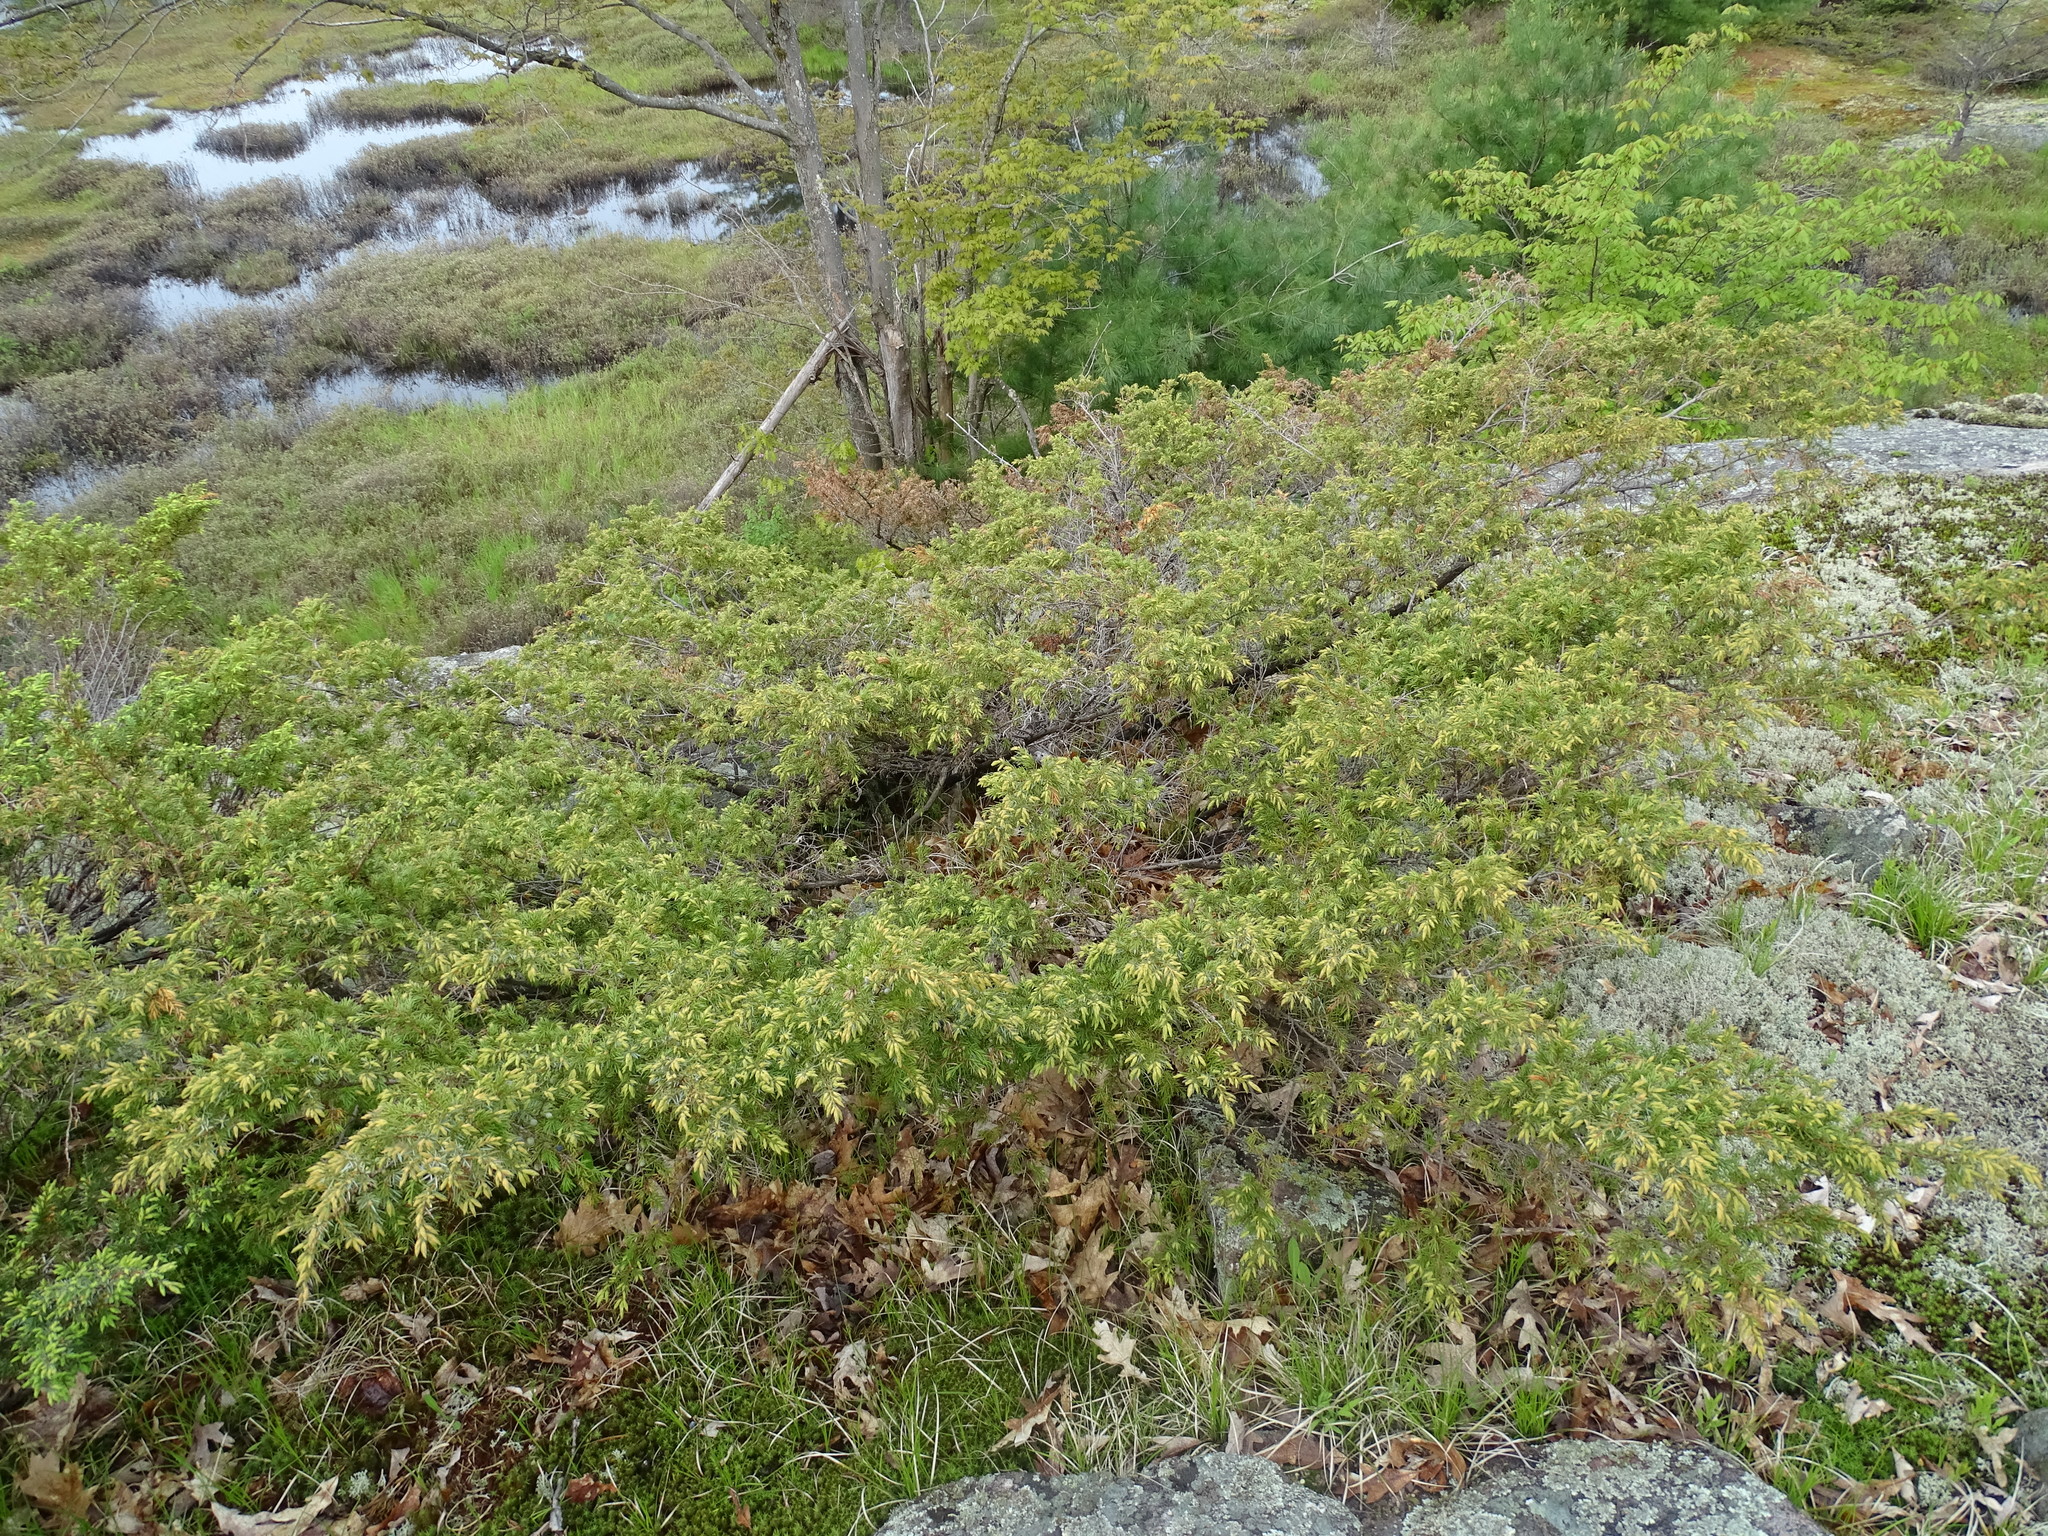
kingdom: Plantae
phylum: Tracheophyta
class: Pinopsida
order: Pinales
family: Cupressaceae
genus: Juniperus
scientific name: Juniperus communis
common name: Common juniper
